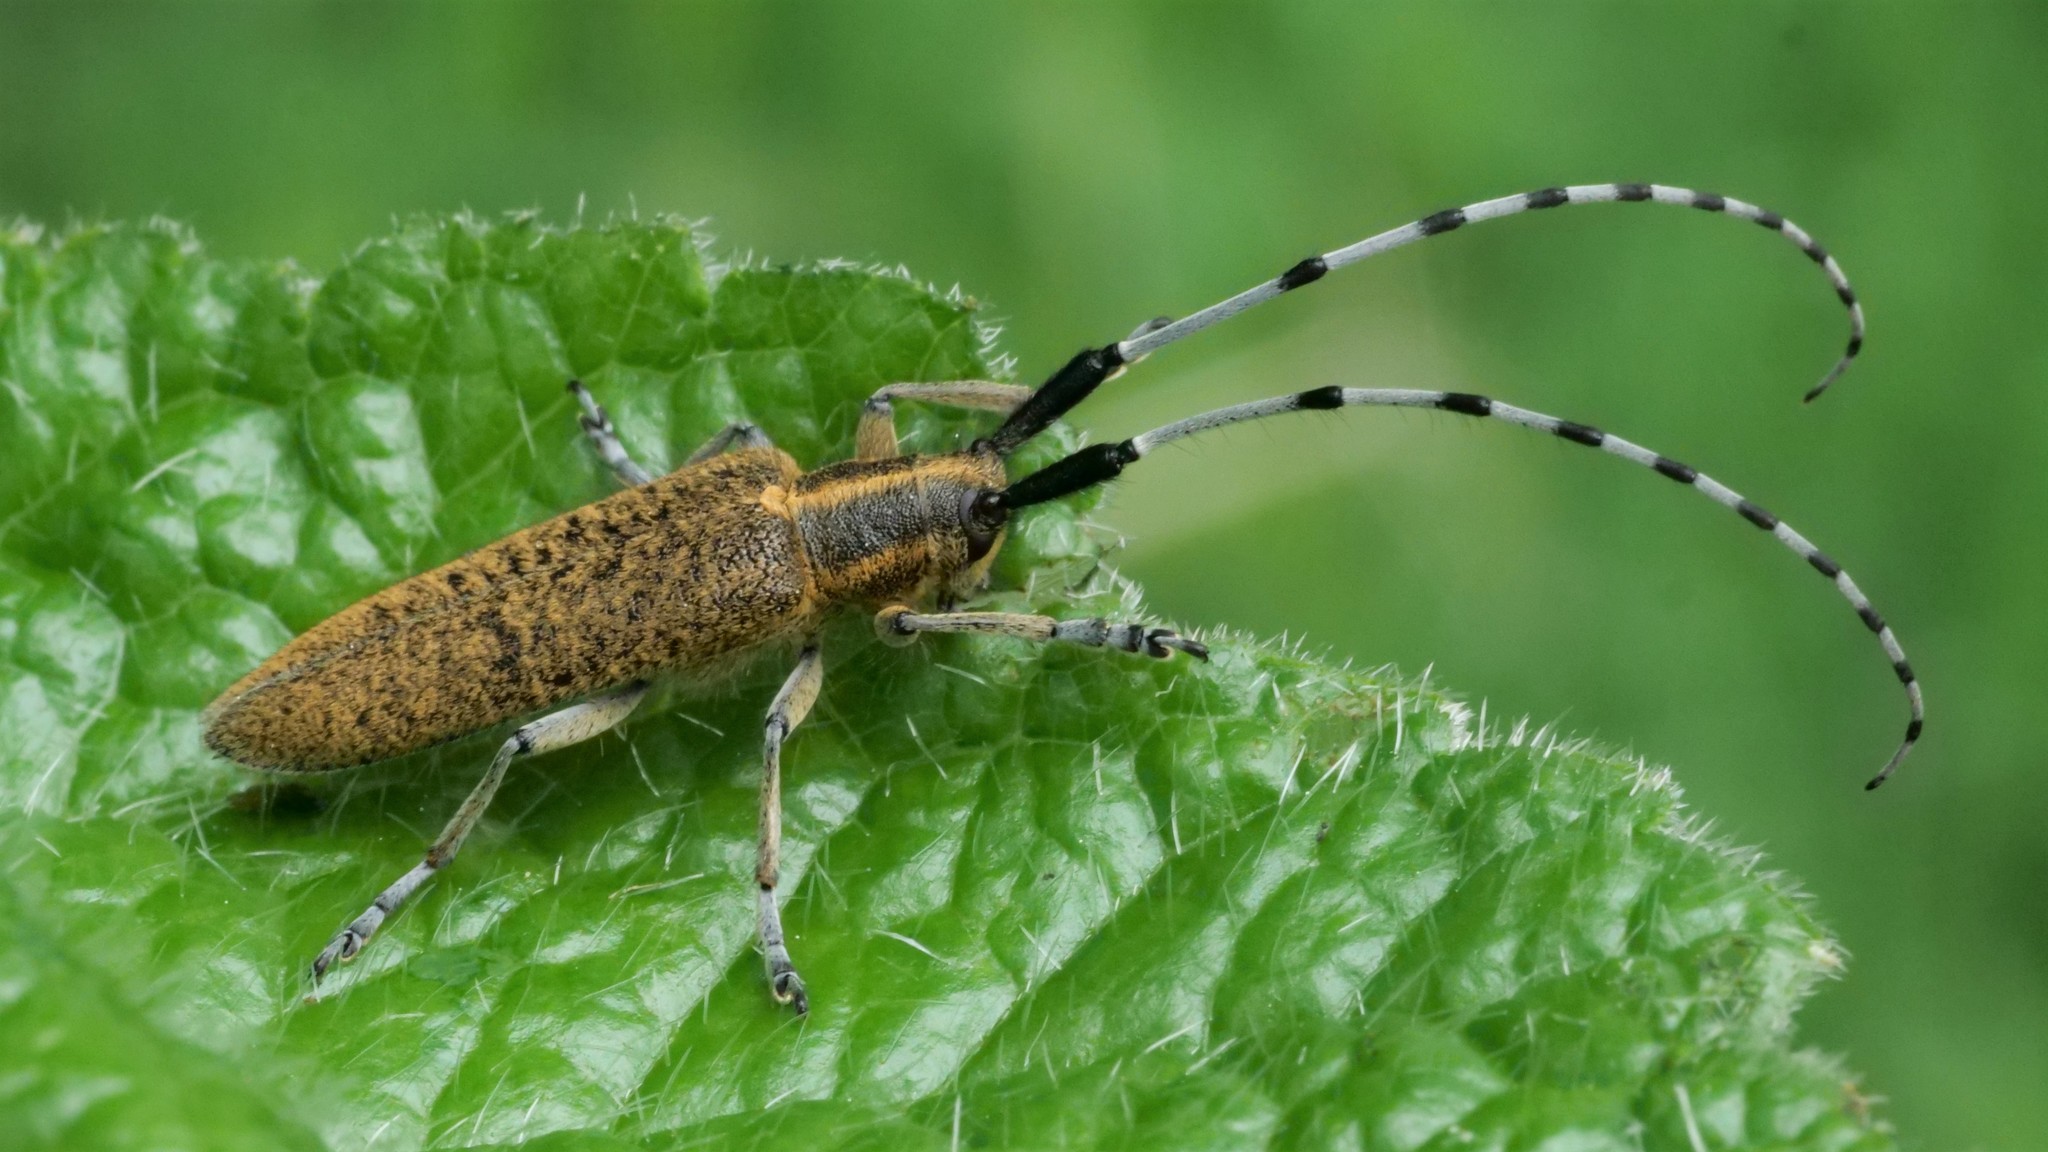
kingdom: Animalia
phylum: Arthropoda
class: Insecta
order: Coleoptera
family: Cerambycidae
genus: Agapanthia
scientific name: Agapanthia villosoviridescens
